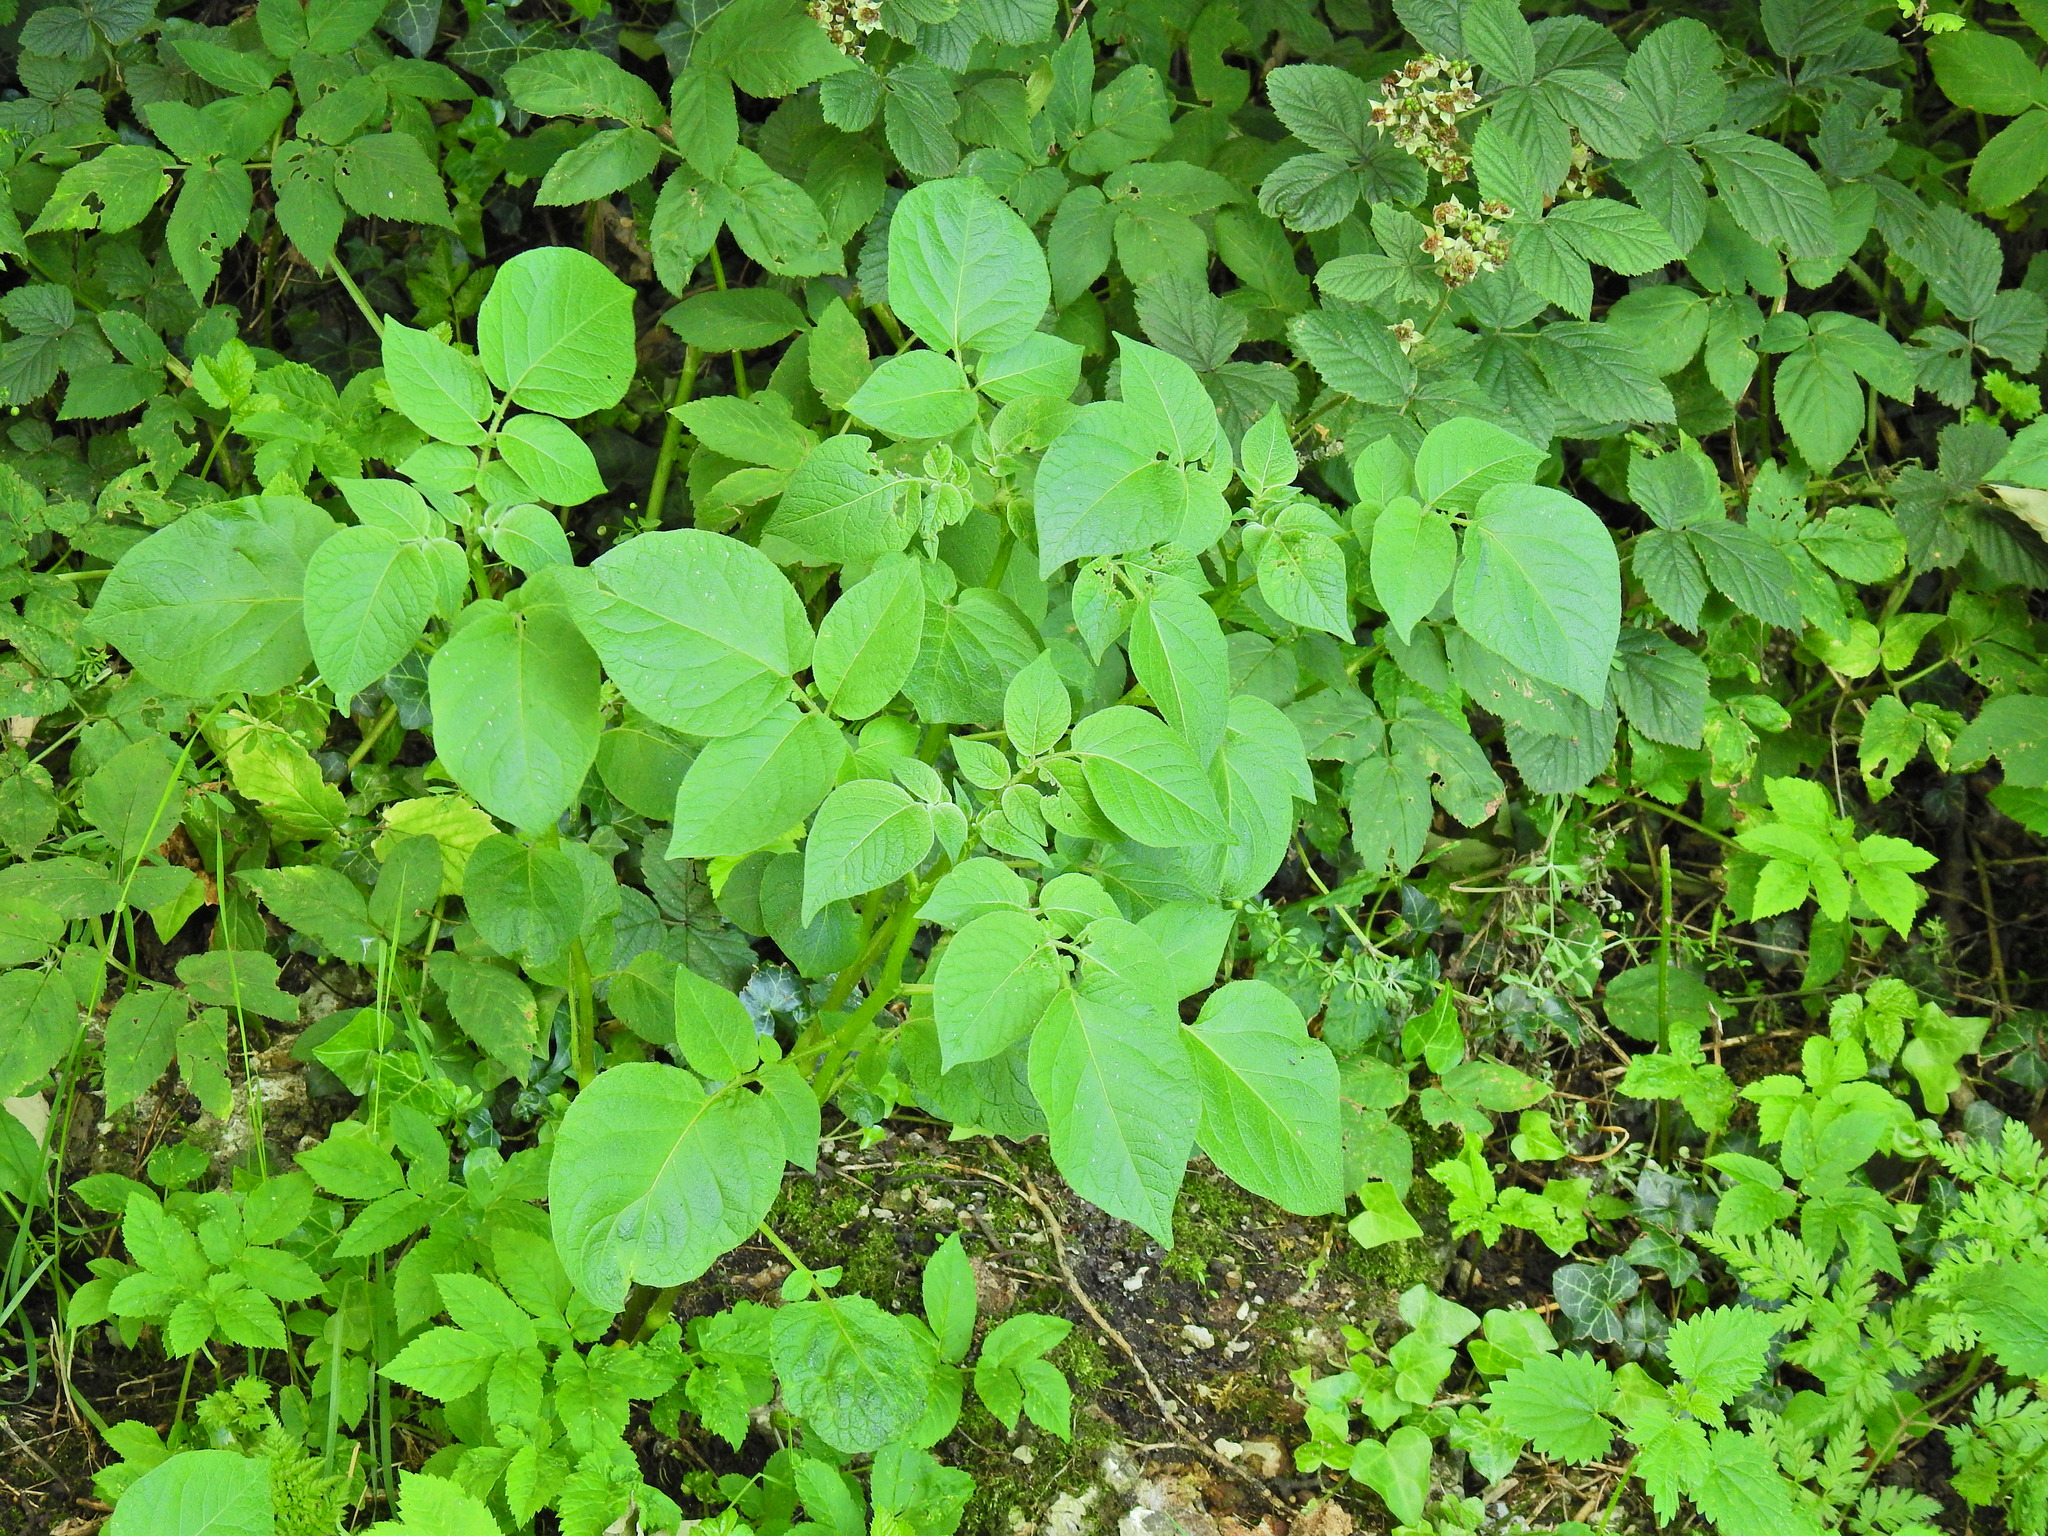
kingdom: Plantae
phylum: Tracheophyta
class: Magnoliopsida
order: Solanales
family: Solanaceae
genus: Solanum
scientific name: Solanum tuberosum
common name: Potato
